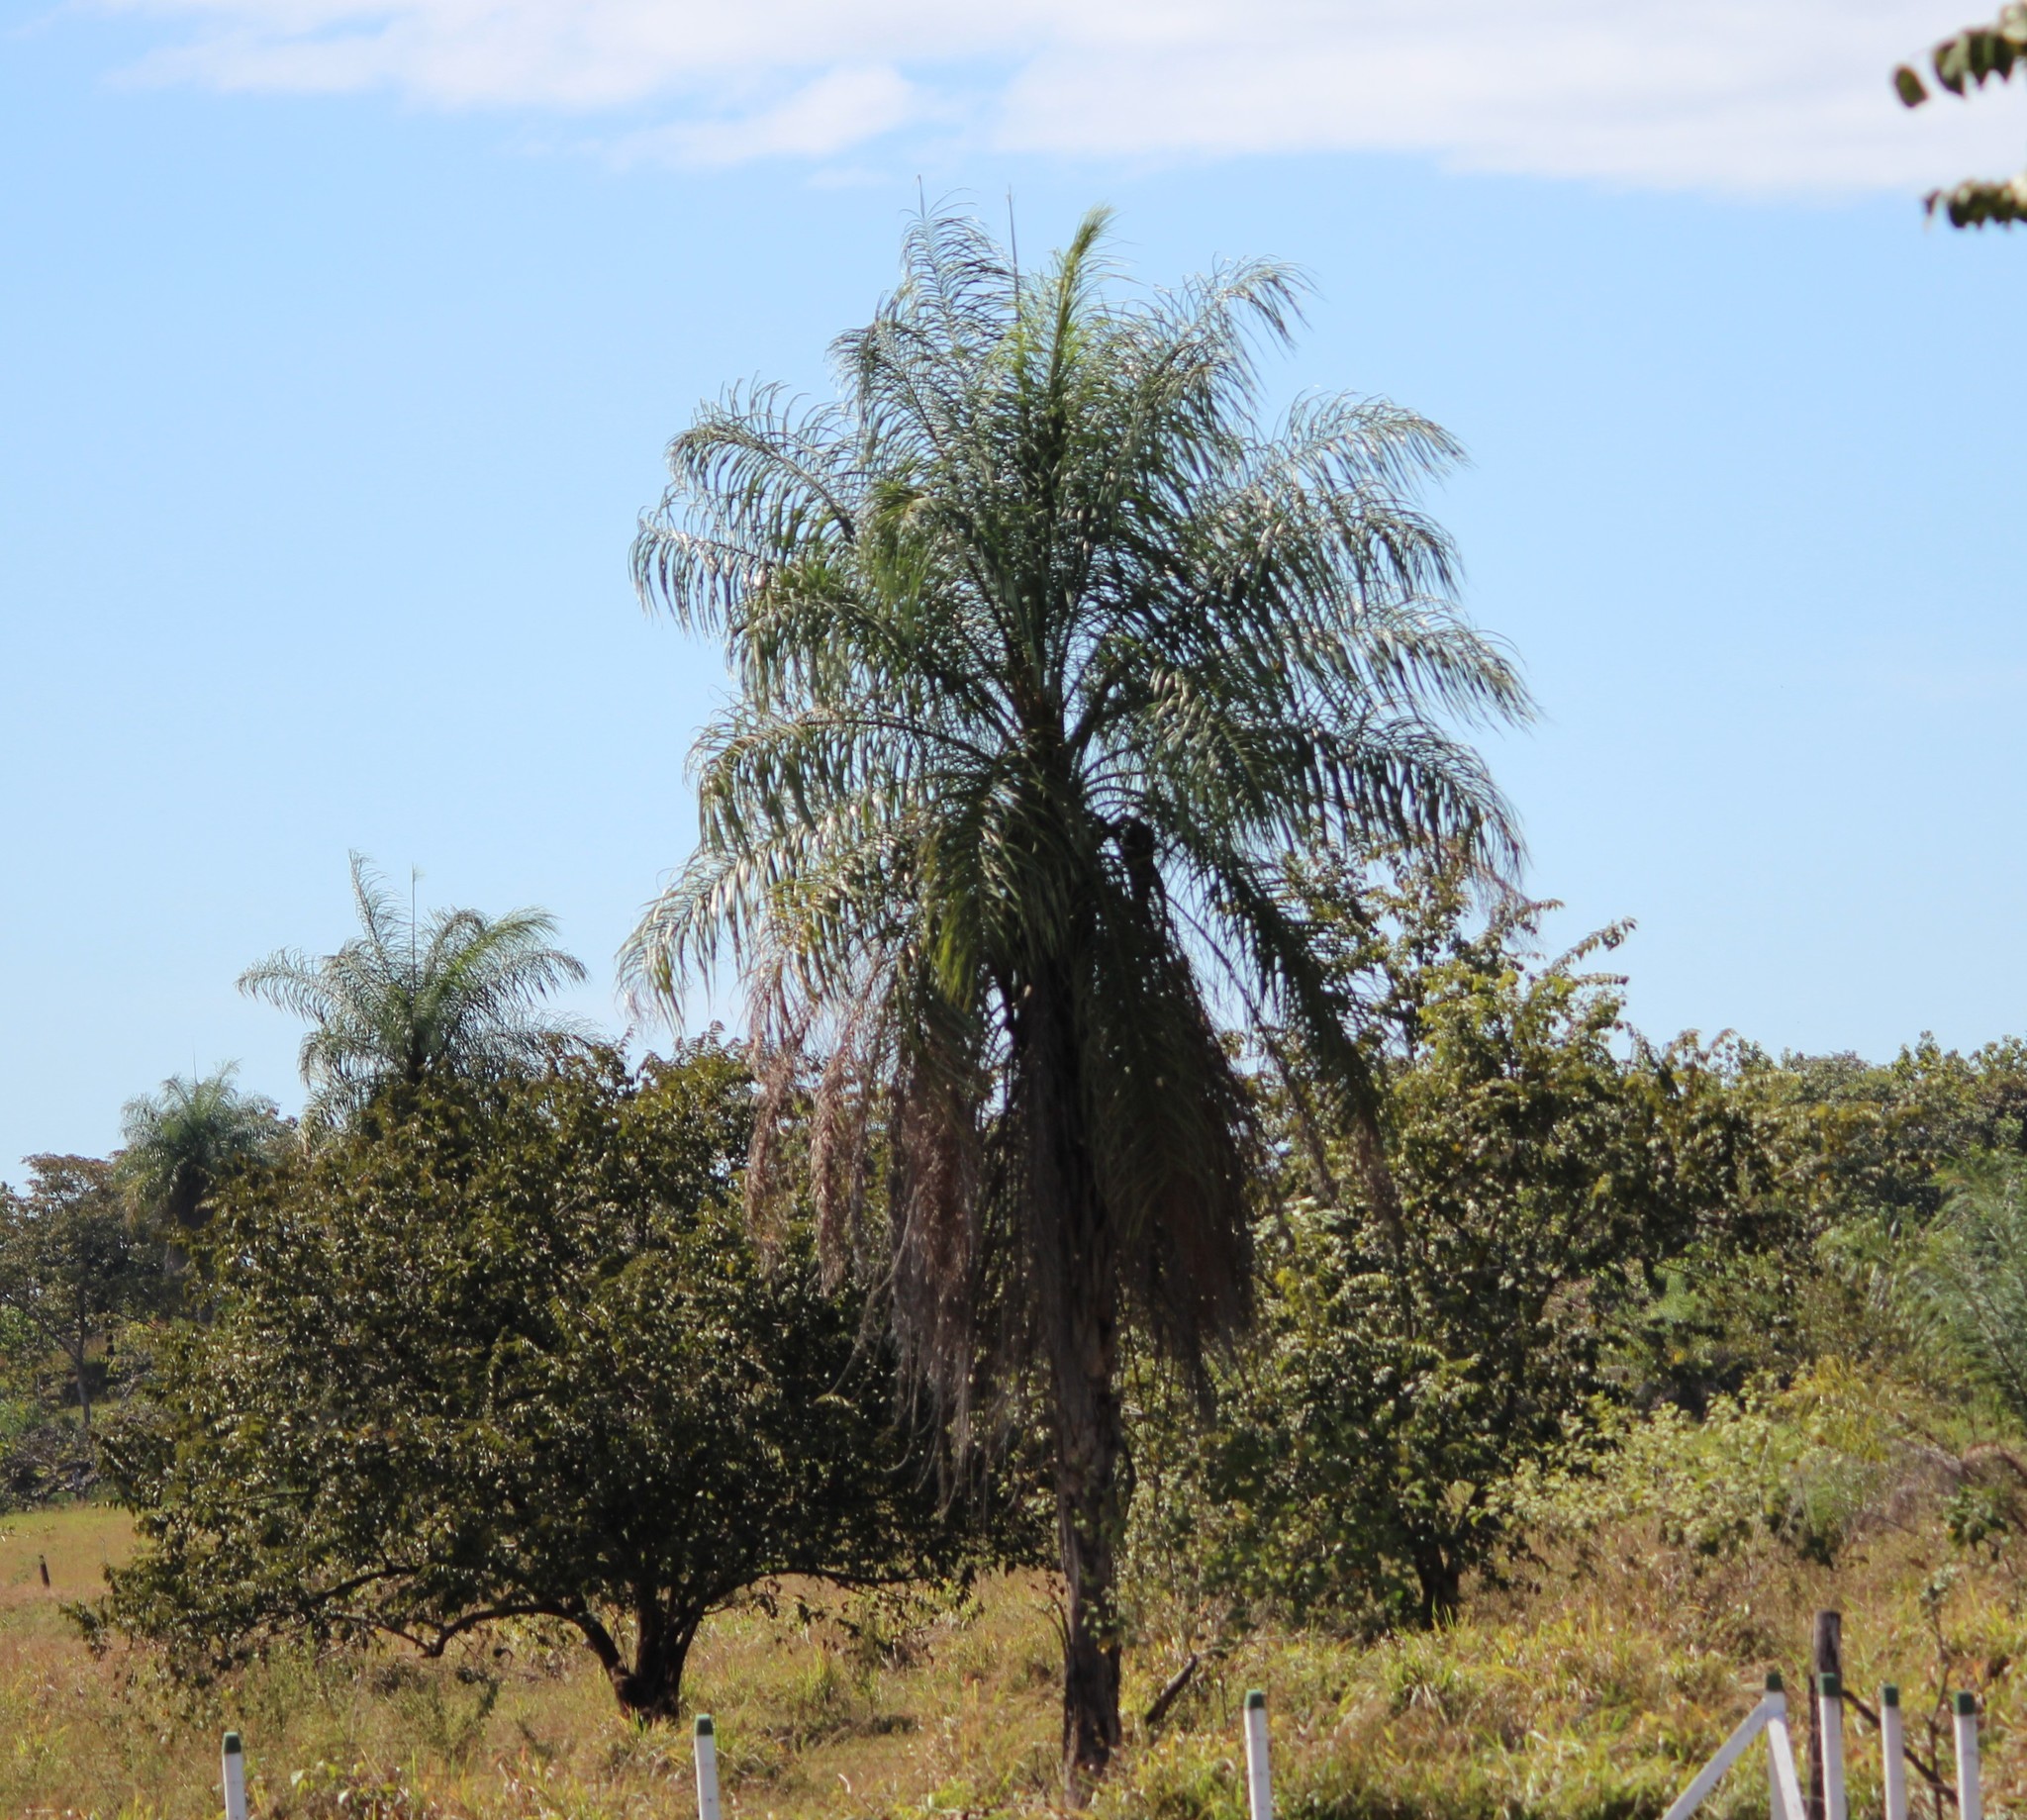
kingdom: Plantae
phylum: Tracheophyta
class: Liliopsida
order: Arecales
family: Arecaceae
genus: Acrocomia
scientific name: Acrocomia aculeata
